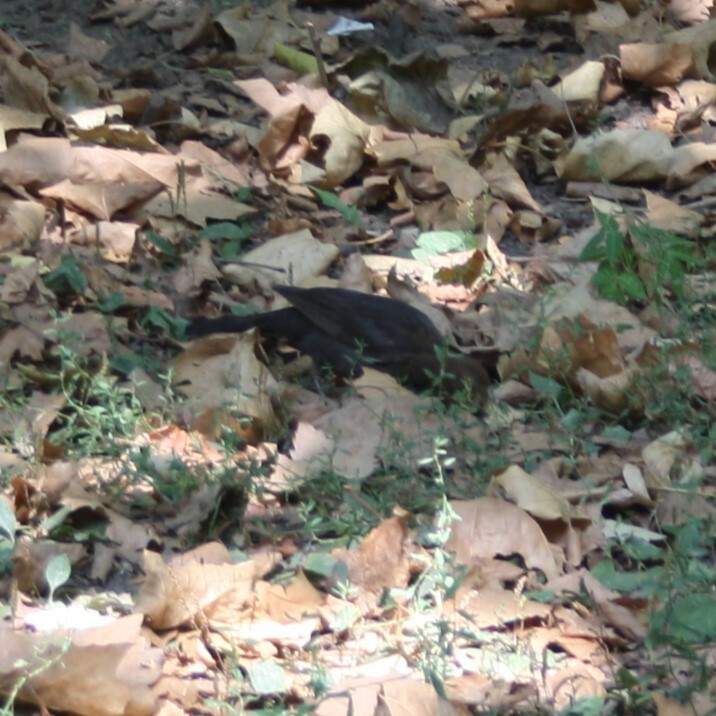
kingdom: Animalia
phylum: Chordata
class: Aves
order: Passeriformes
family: Turdidae
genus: Turdus
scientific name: Turdus merula
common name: Common blackbird
